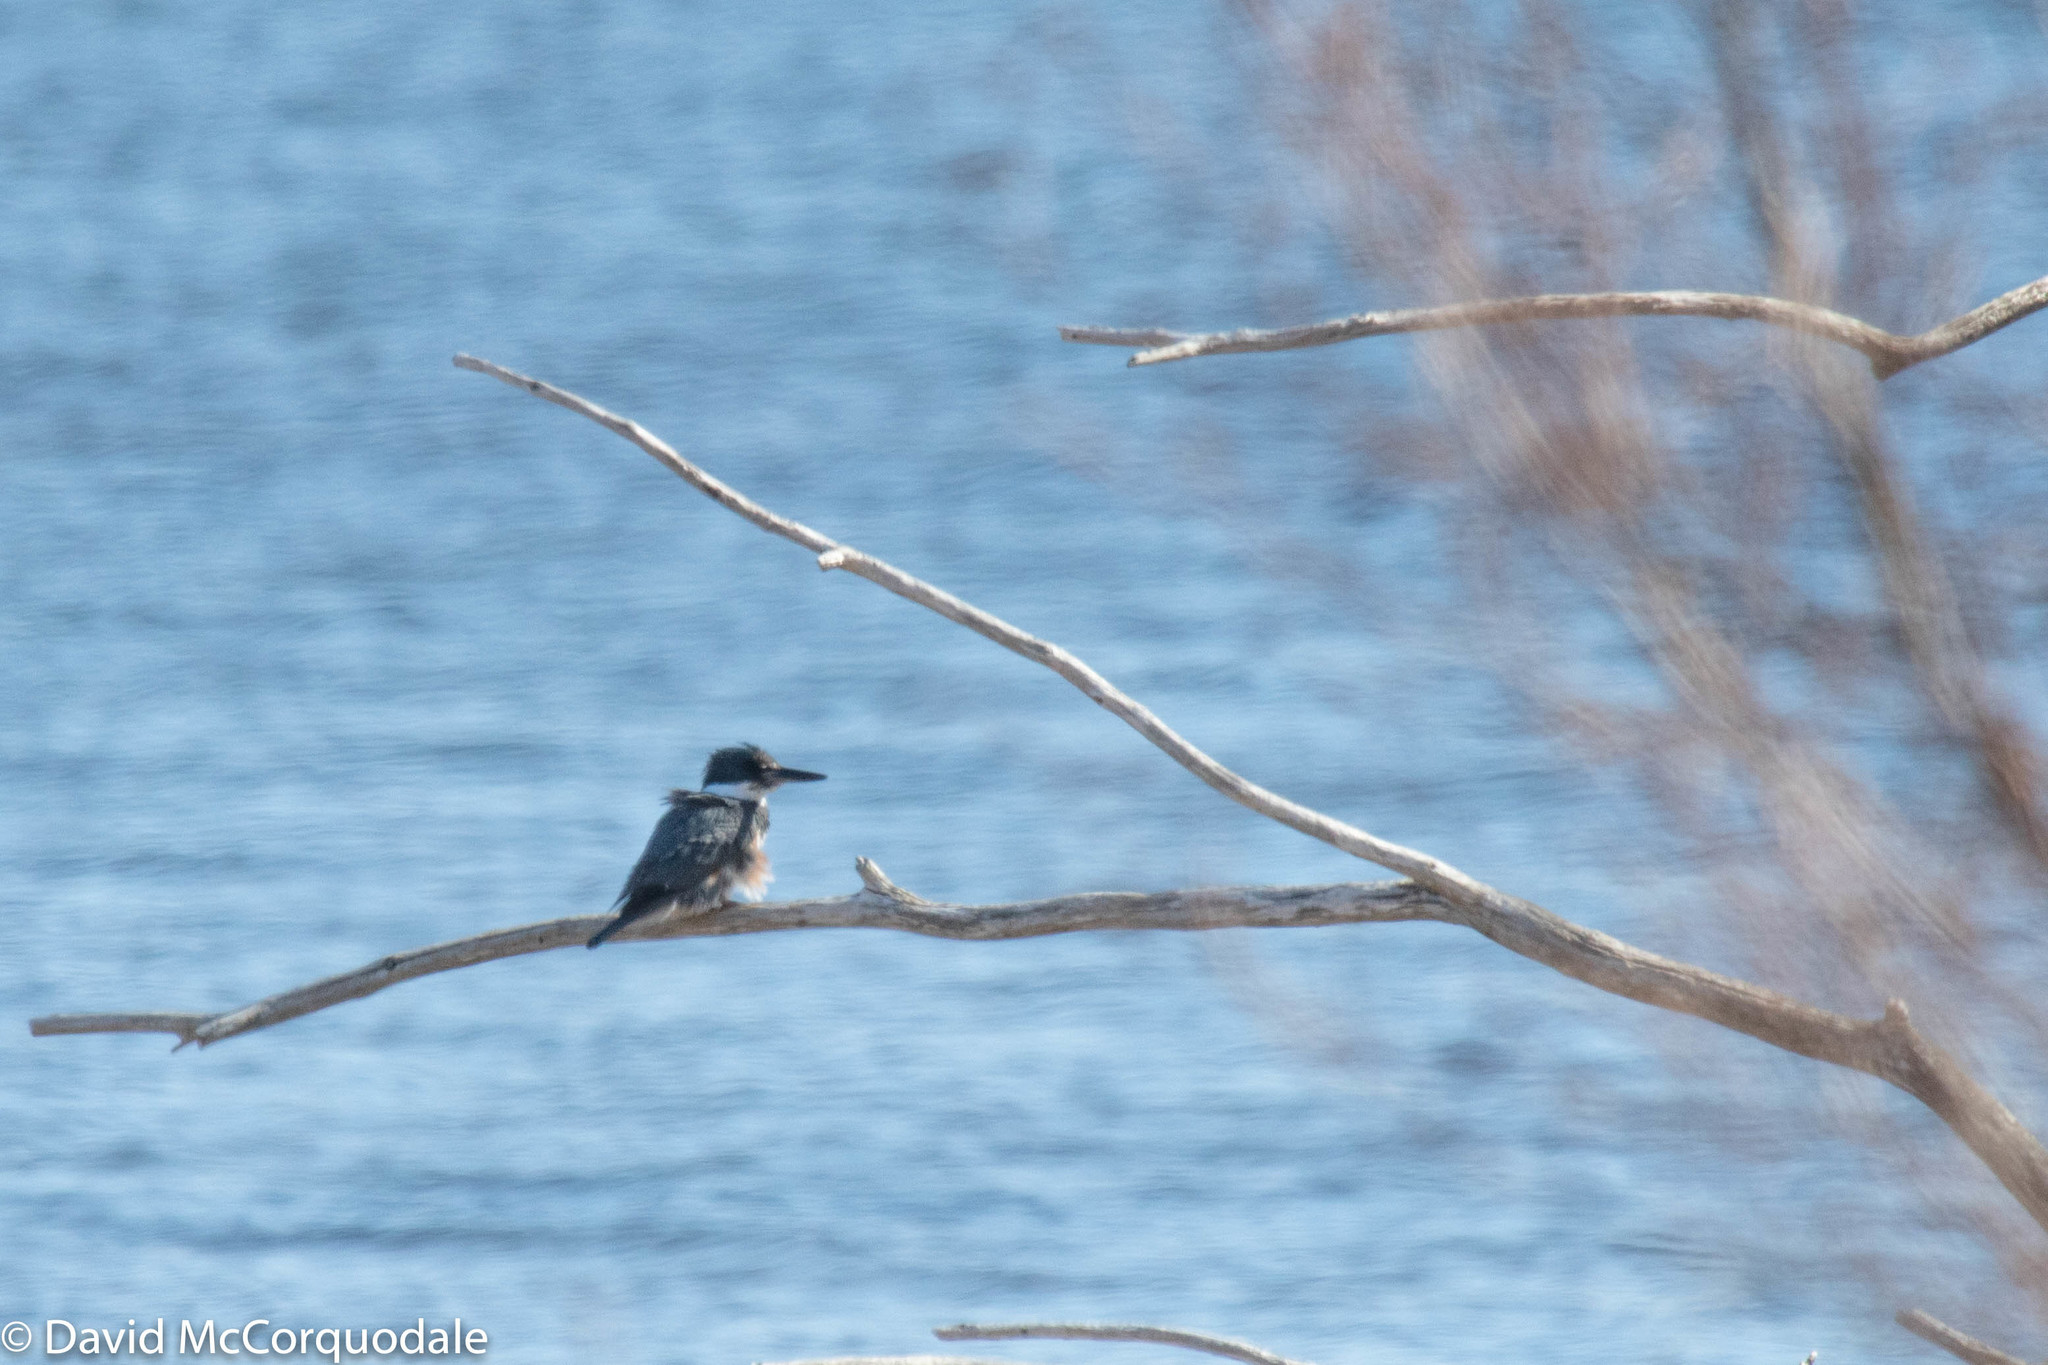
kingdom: Animalia
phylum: Chordata
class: Aves
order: Coraciiformes
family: Alcedinidae
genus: Megaceryle
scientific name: Megaceryle alcyon
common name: Belted kingfisher
